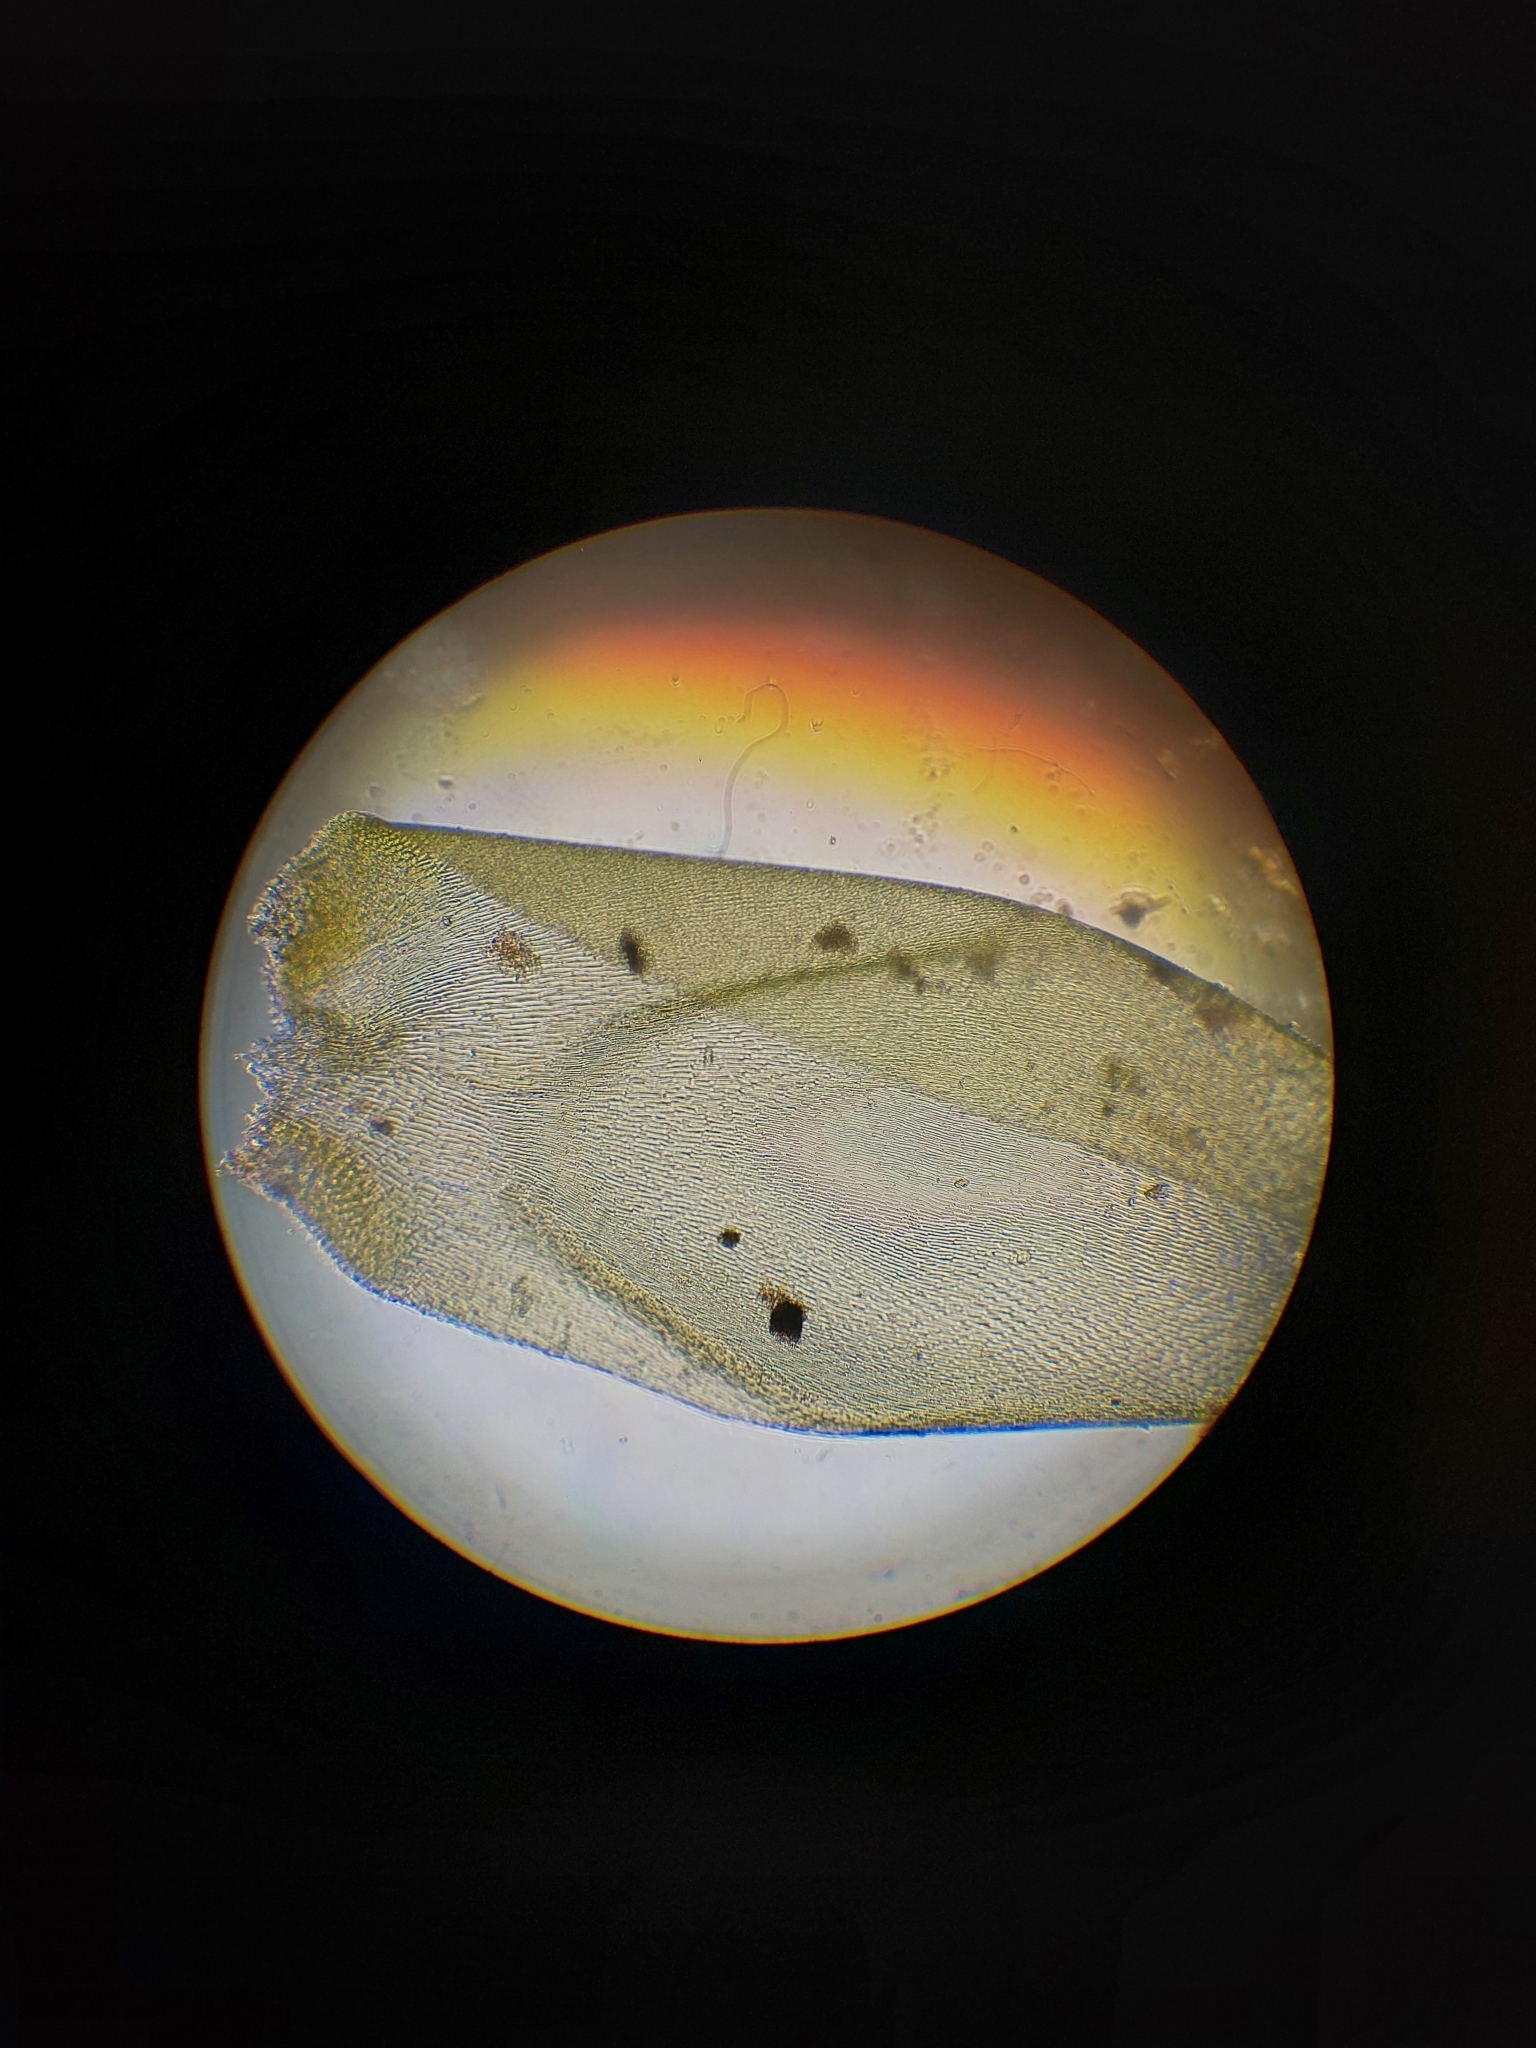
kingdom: Plantae
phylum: Bryophyta
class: Bryopsida
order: Hypnales
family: Hypnaceae
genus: Hypnum
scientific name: Hypnum cupressiforme
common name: Cypress-leaved plait-moss
